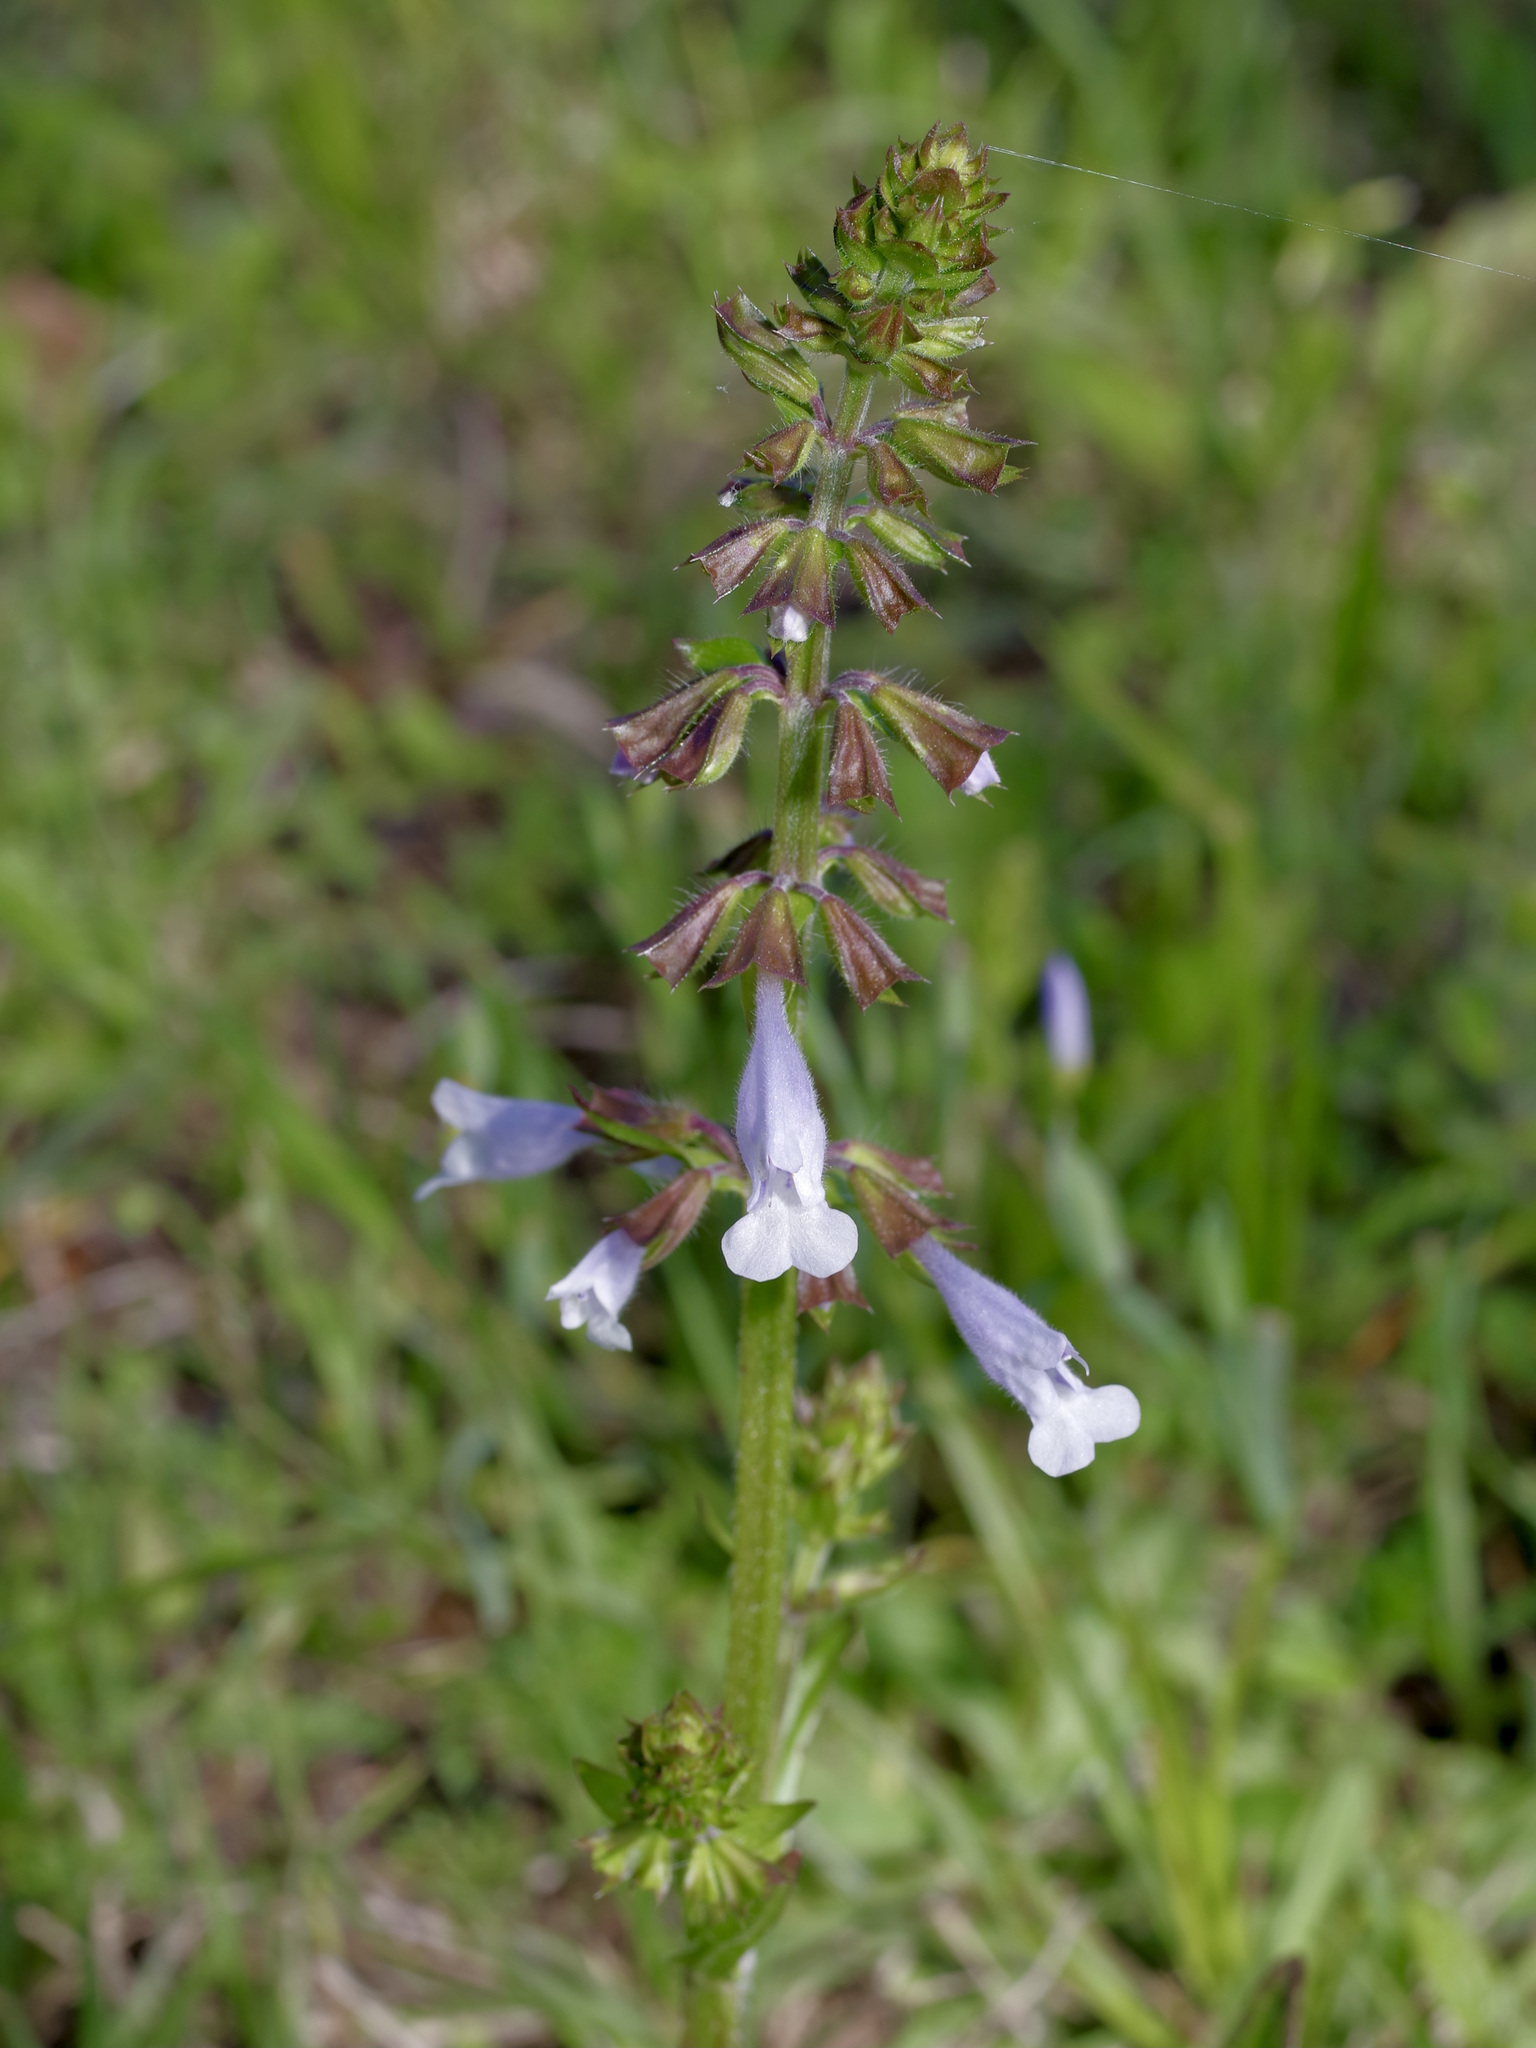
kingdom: Plantae
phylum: Tracheophyta
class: Magnoliopsida
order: Lamiales
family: Lamiaceae
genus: Salvia
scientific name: Salvia lyrata
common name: Cancerweed
